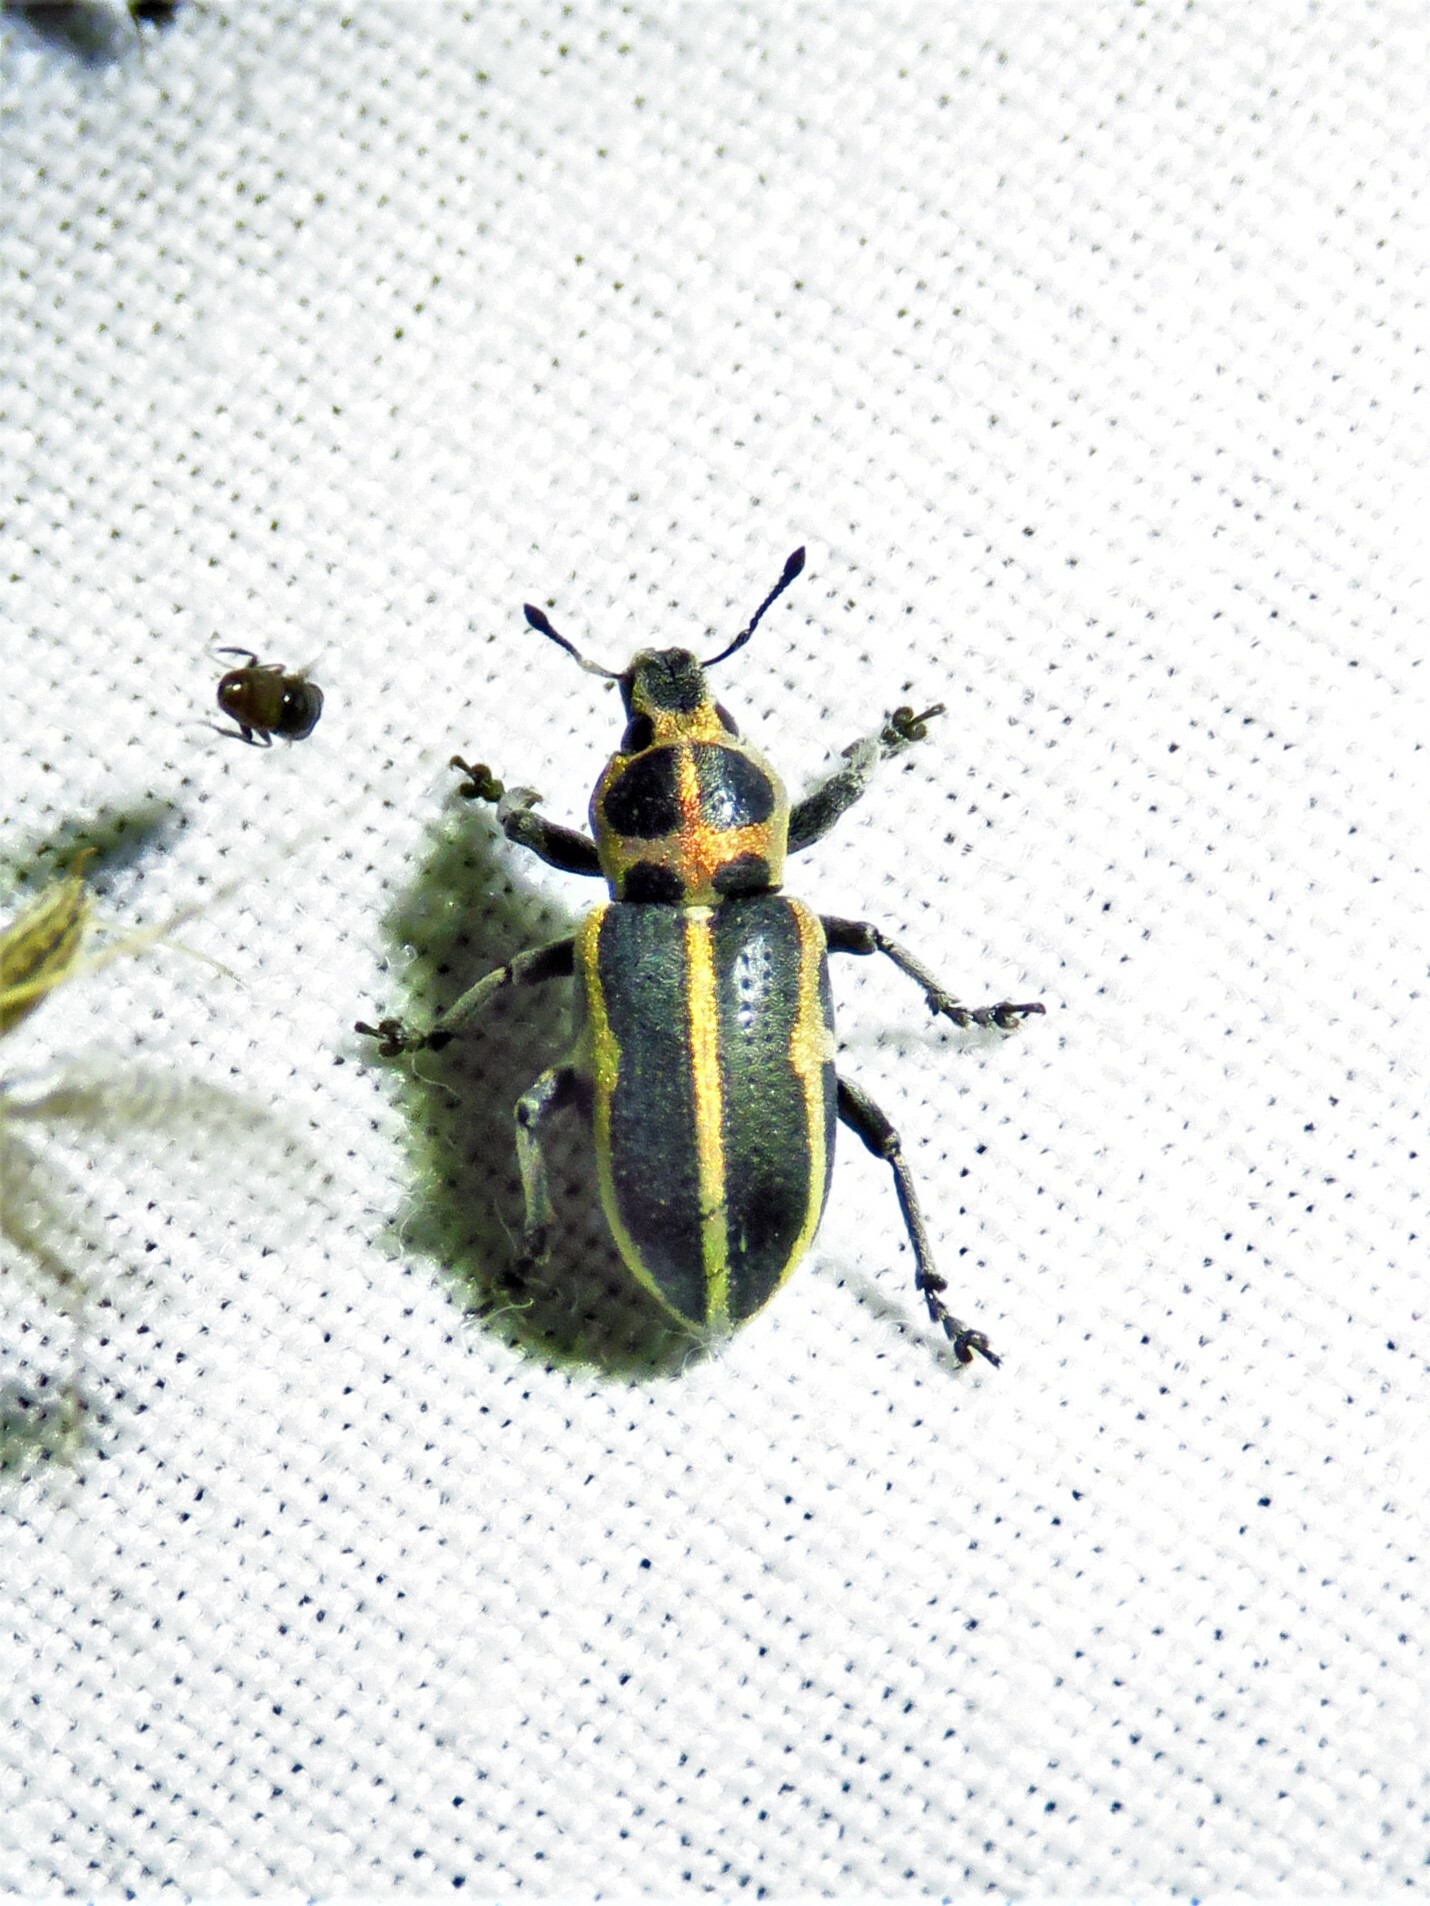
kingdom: Animalia
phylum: Arthropoda
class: Insecta
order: Coleoptera
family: Curculionidae
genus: Eudiagogus
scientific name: Eudiagogus pulcher
